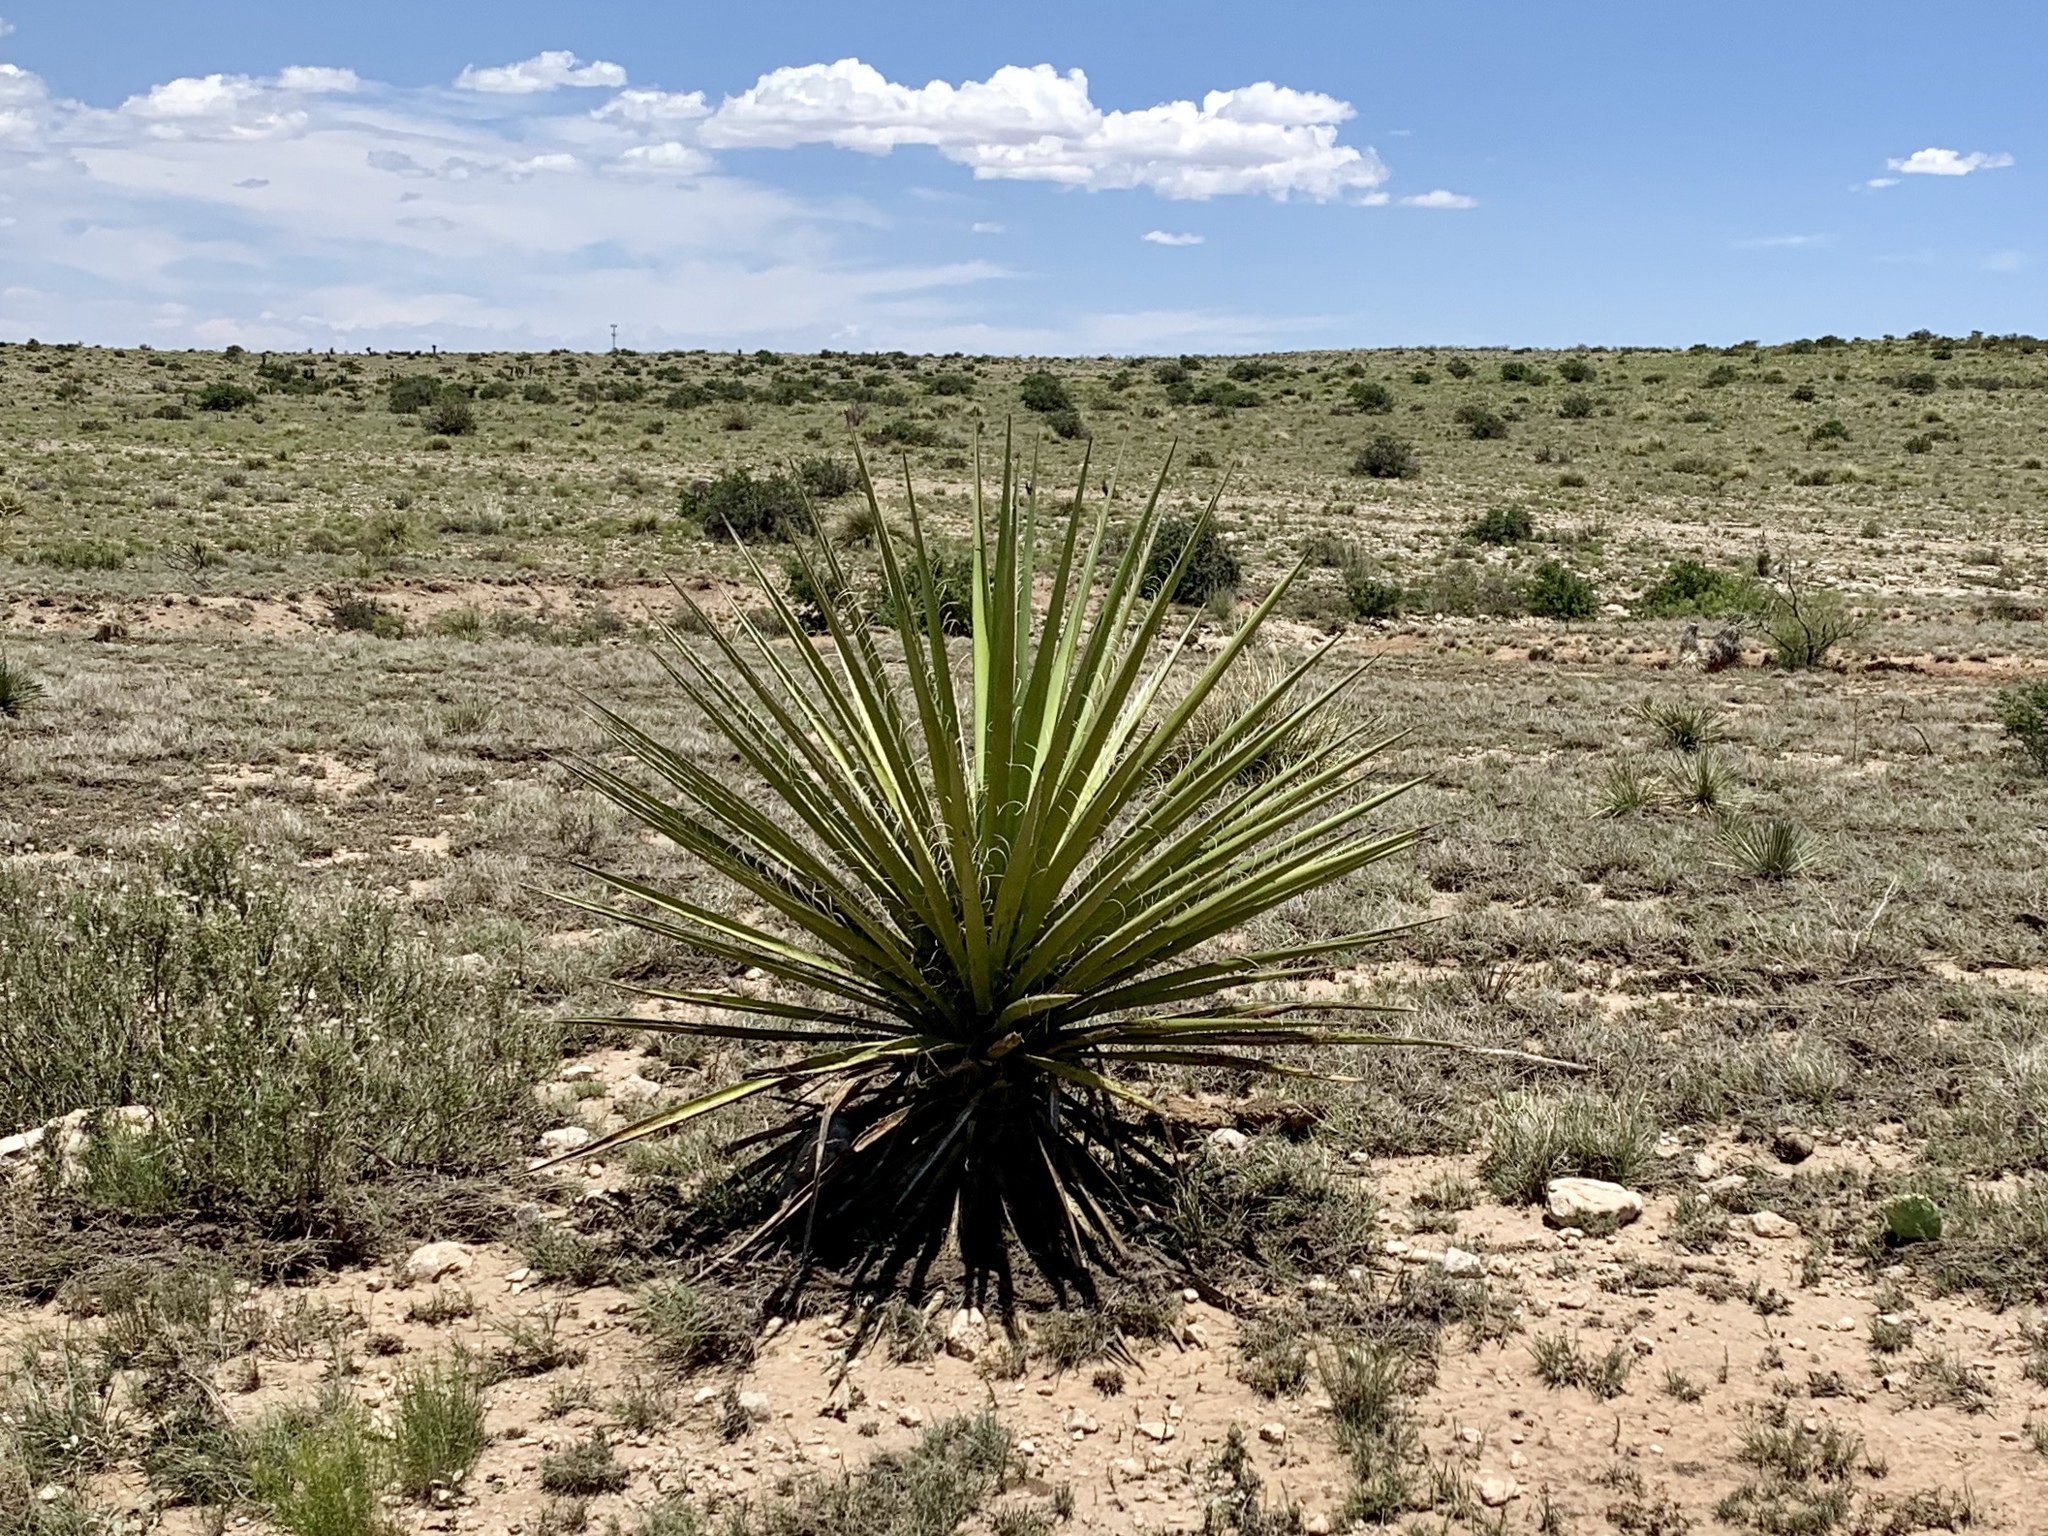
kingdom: Plantae
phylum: Tracheophyta
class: Liliopsida
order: Asparagales
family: Asparagaceae
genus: Yucca
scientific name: Yucca treculiana
